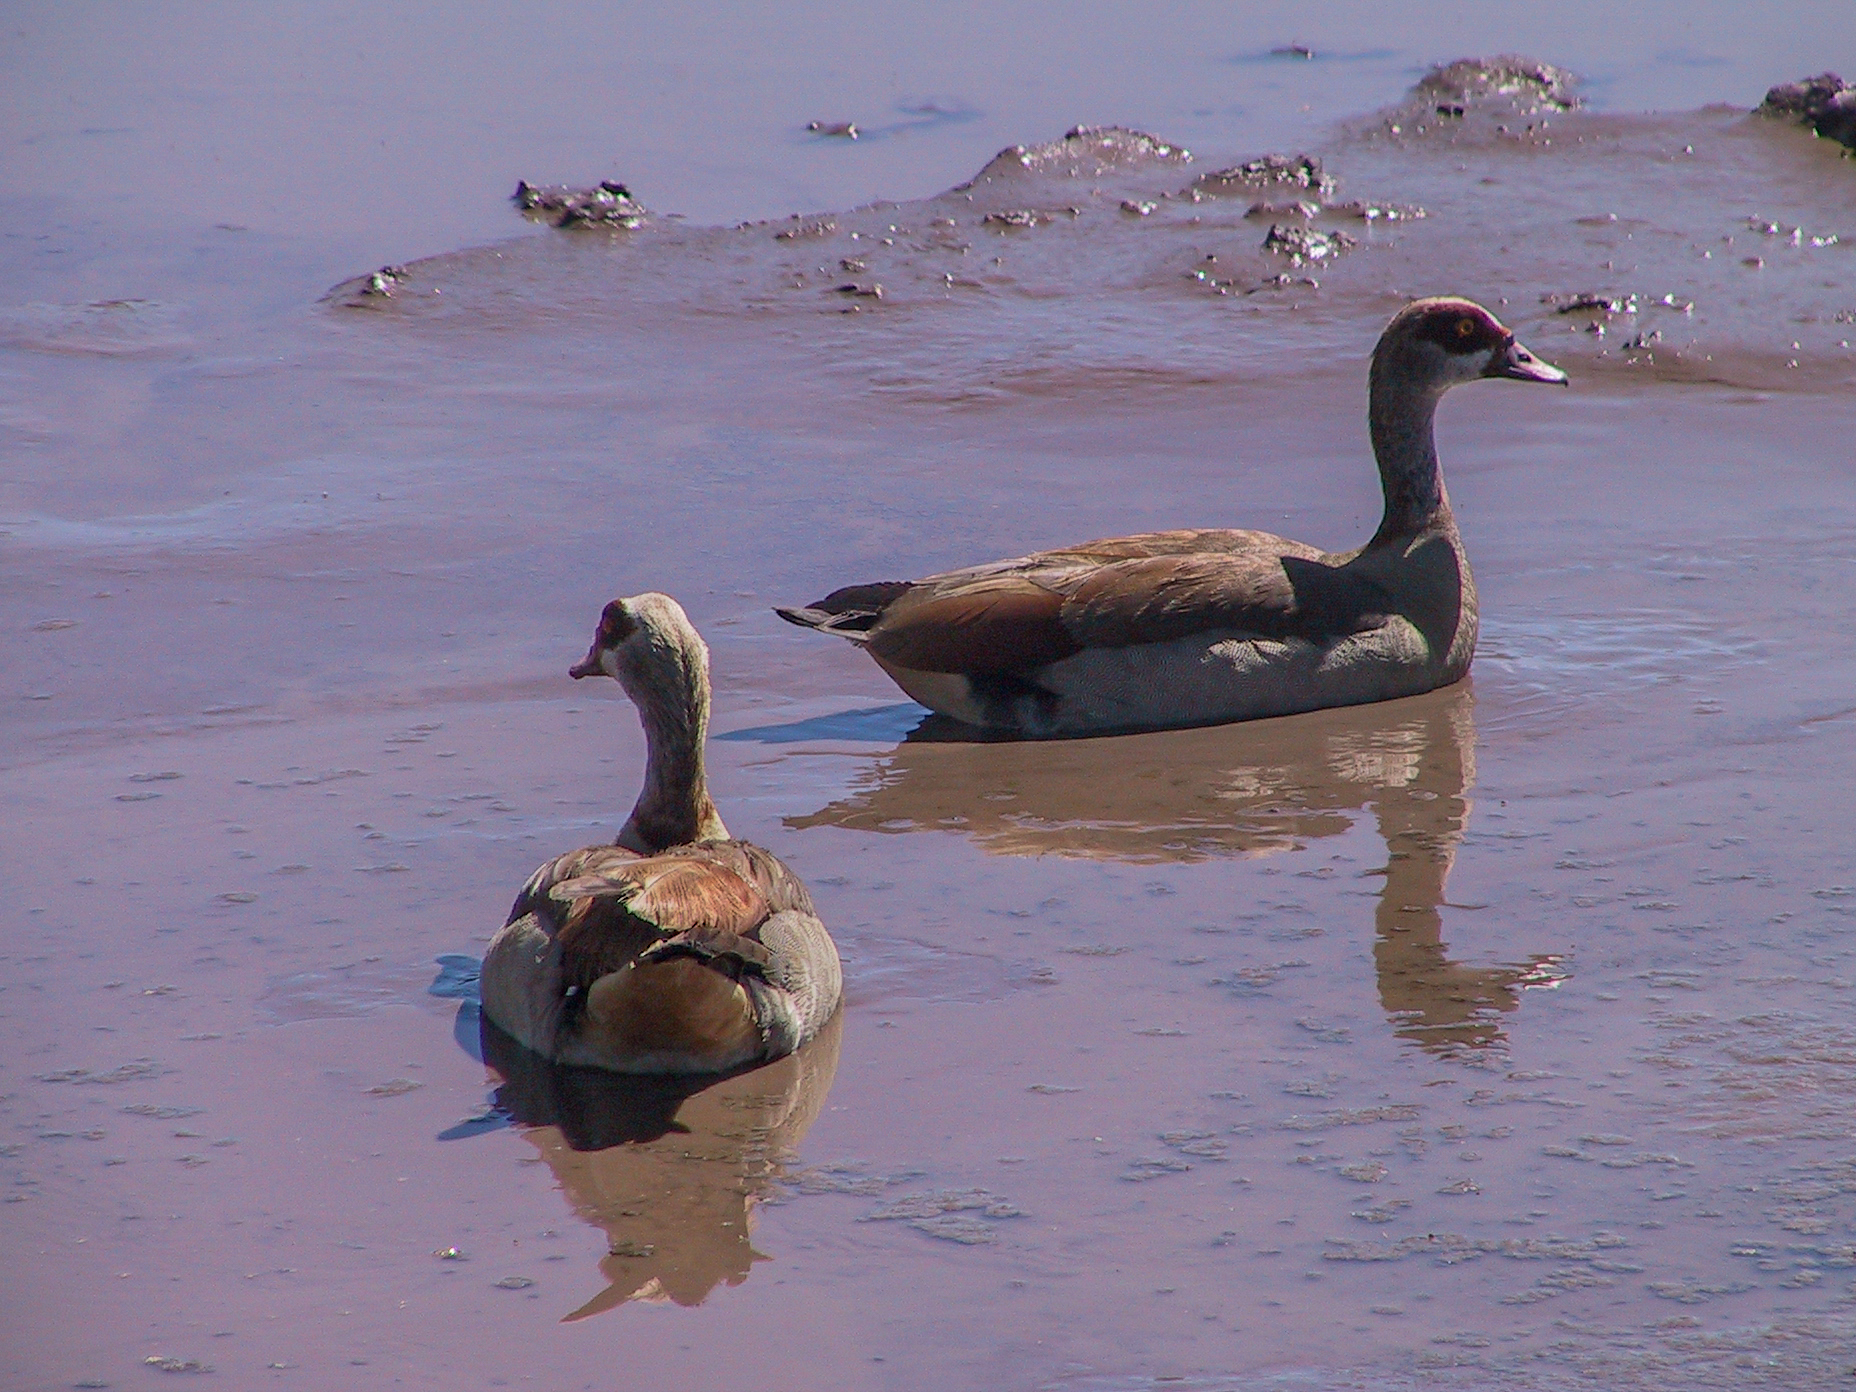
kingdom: Animalia
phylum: Chordata
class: Aves
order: Anseriformes
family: Anatidae
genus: Alopochen
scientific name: Alopochen aegyptiaca
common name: Egyptian goose
